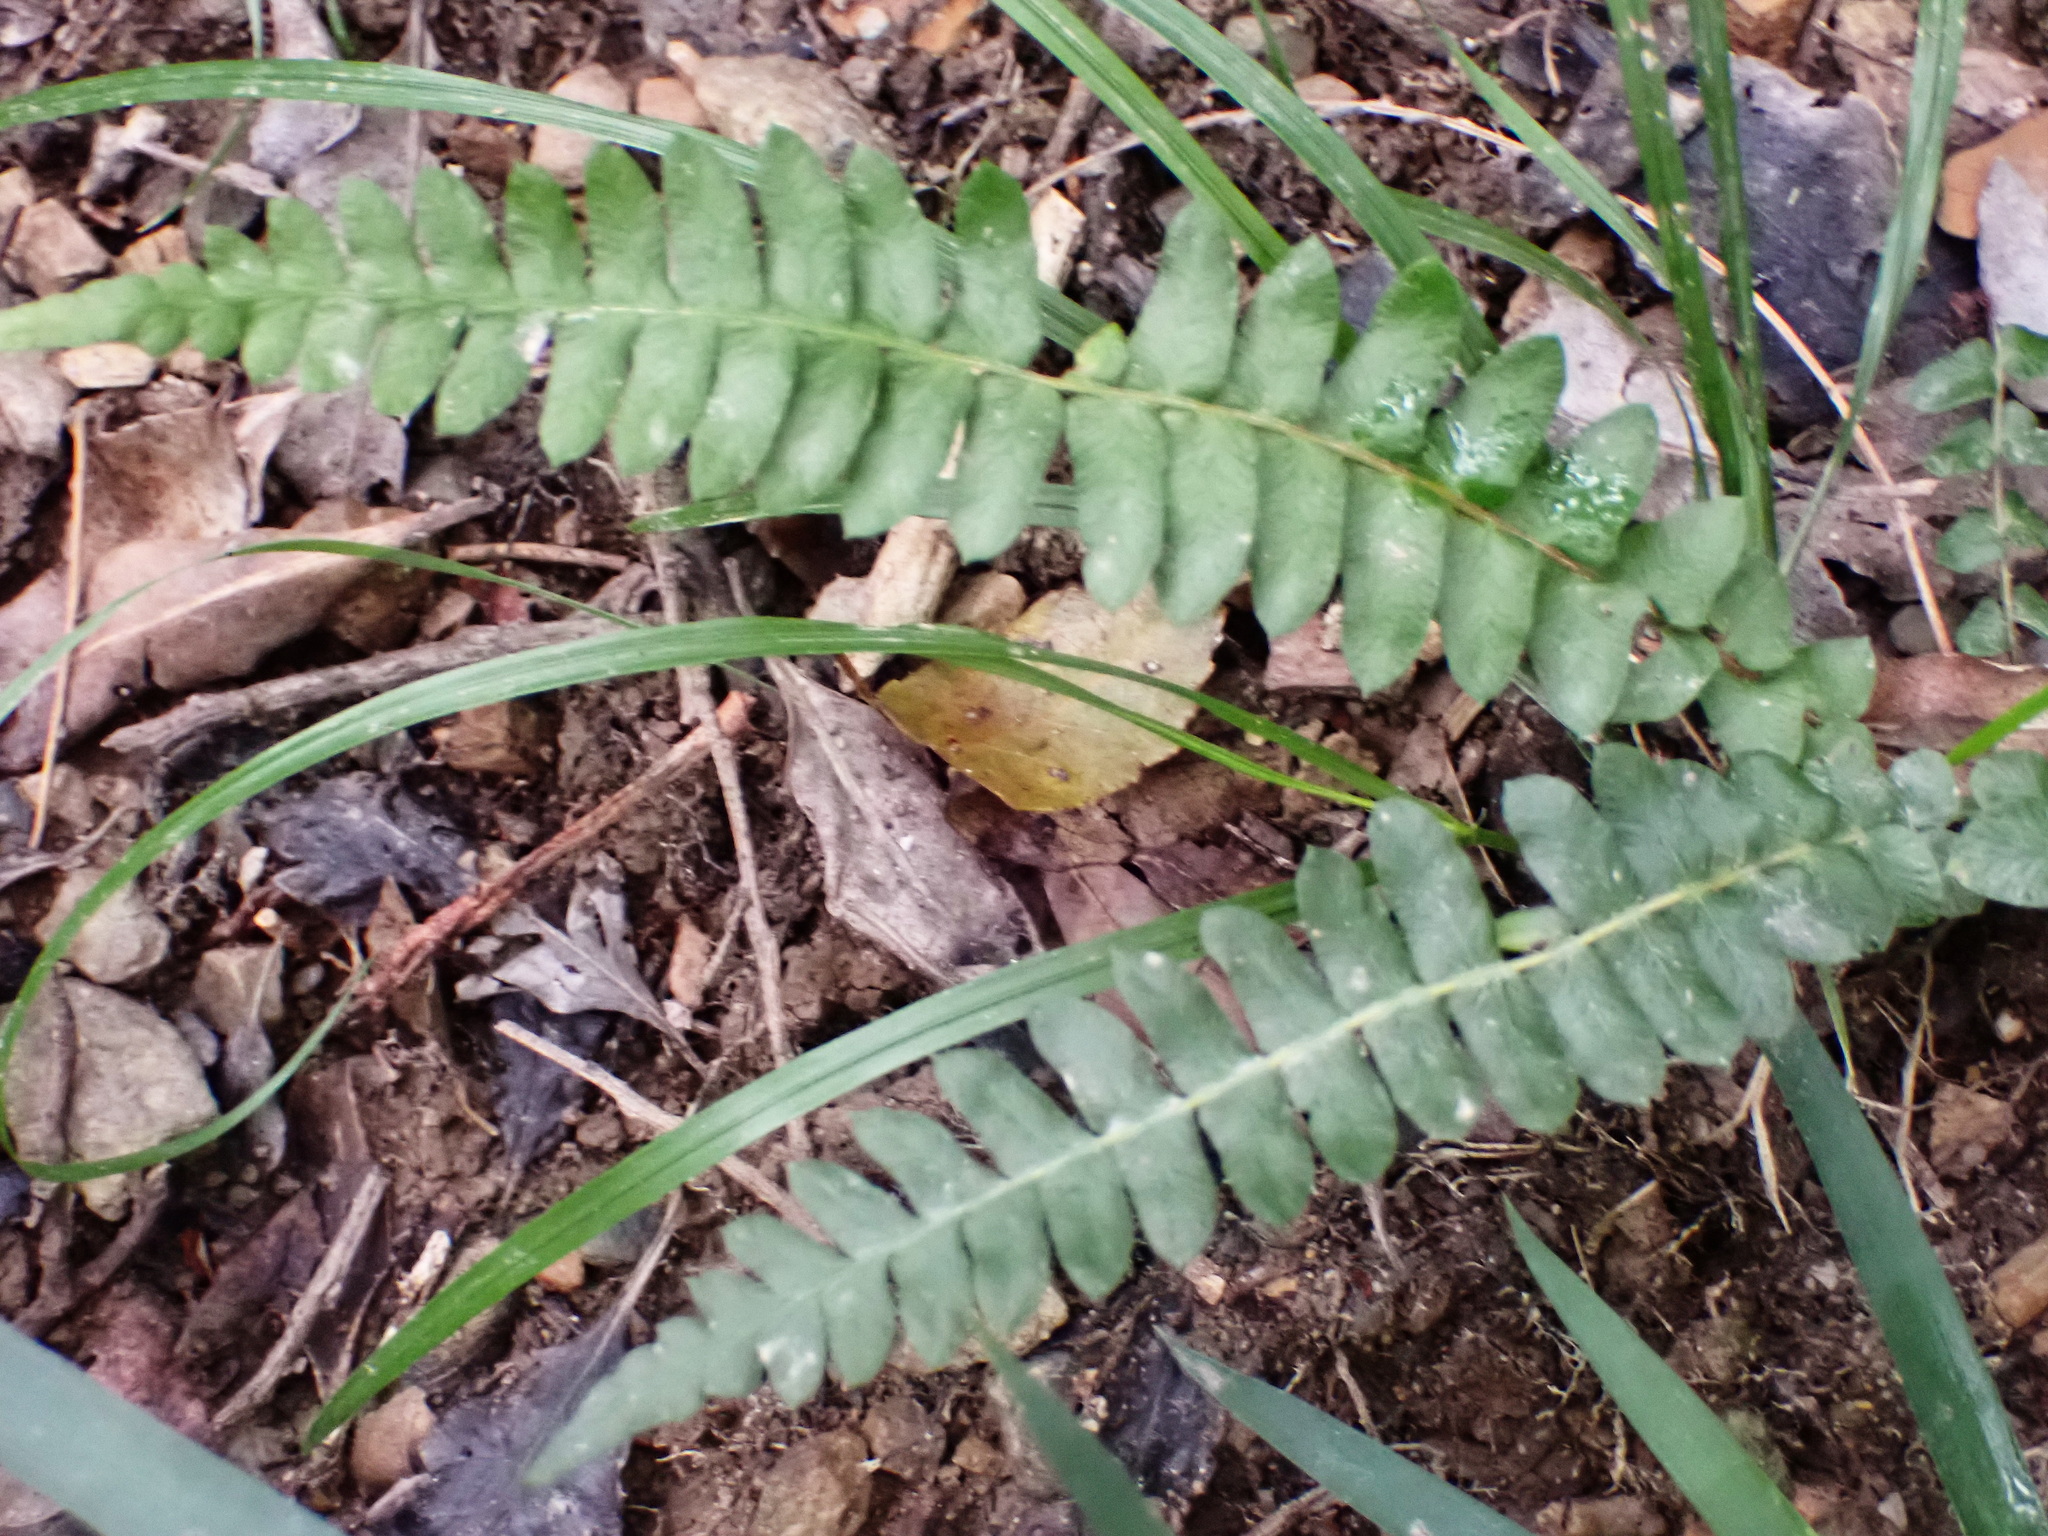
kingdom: Plantae
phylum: Tracheophyta
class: Polypodiopsida
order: Polypodiales
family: Blechnaceae
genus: Blechnum
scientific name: Blechnum australe
